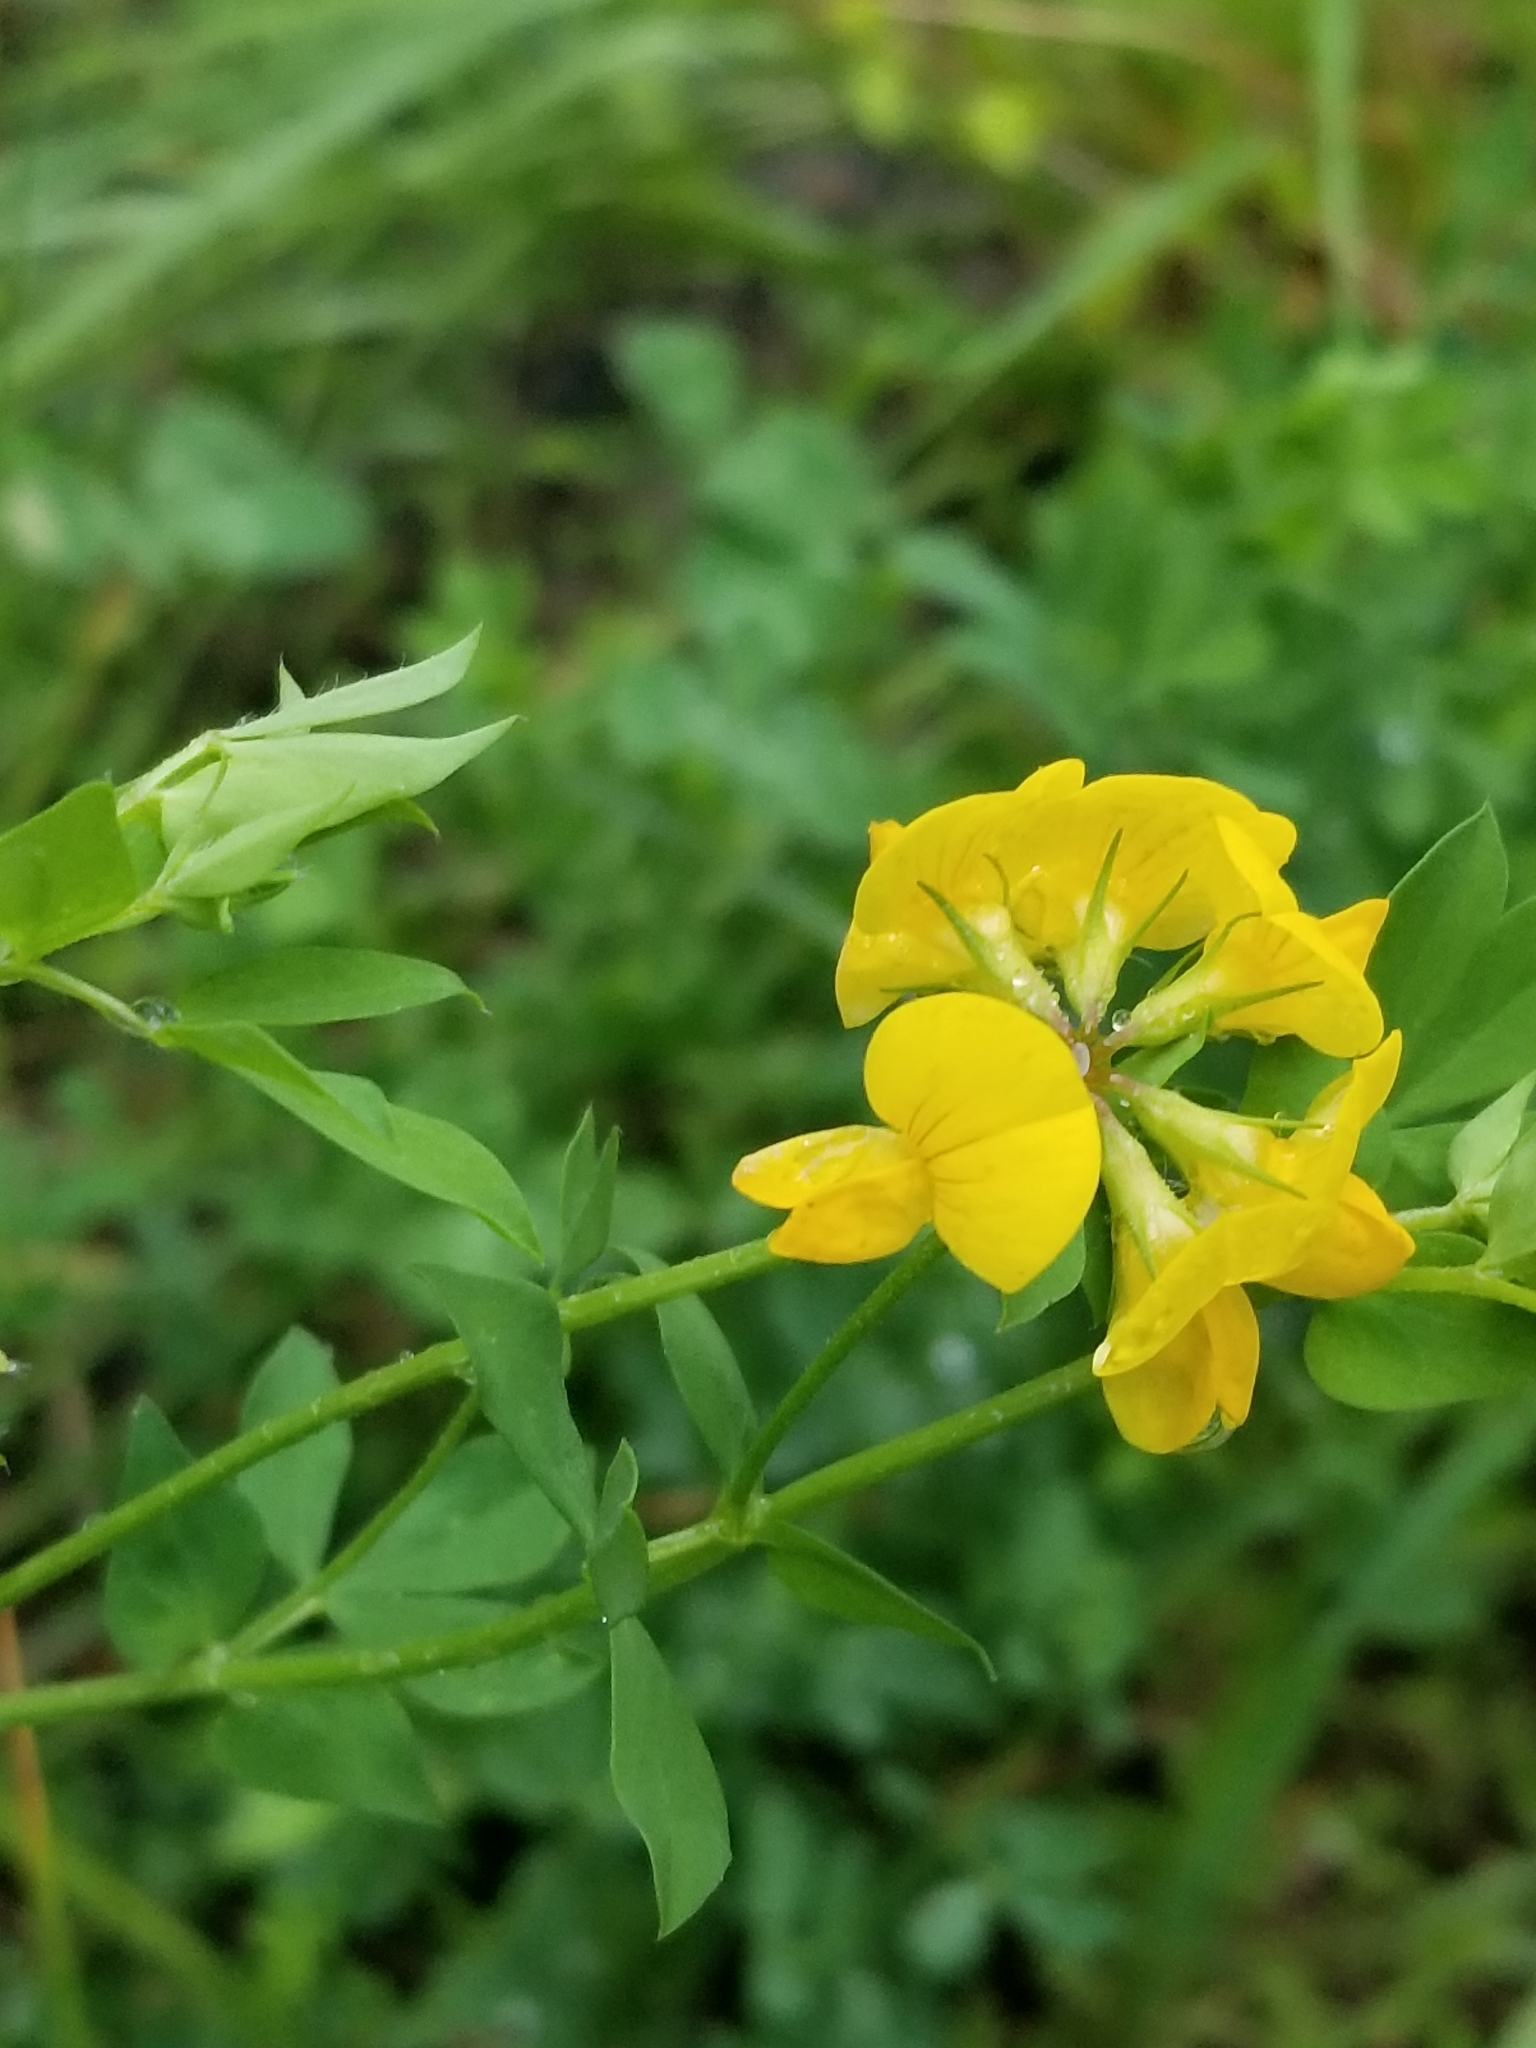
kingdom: Plantae
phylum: Tracheophyta
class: Magnoliopsida
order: Fabales
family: Fabaceae
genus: Lotus
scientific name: Lotus corniculatus
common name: Common bird's-foot-trefoil
